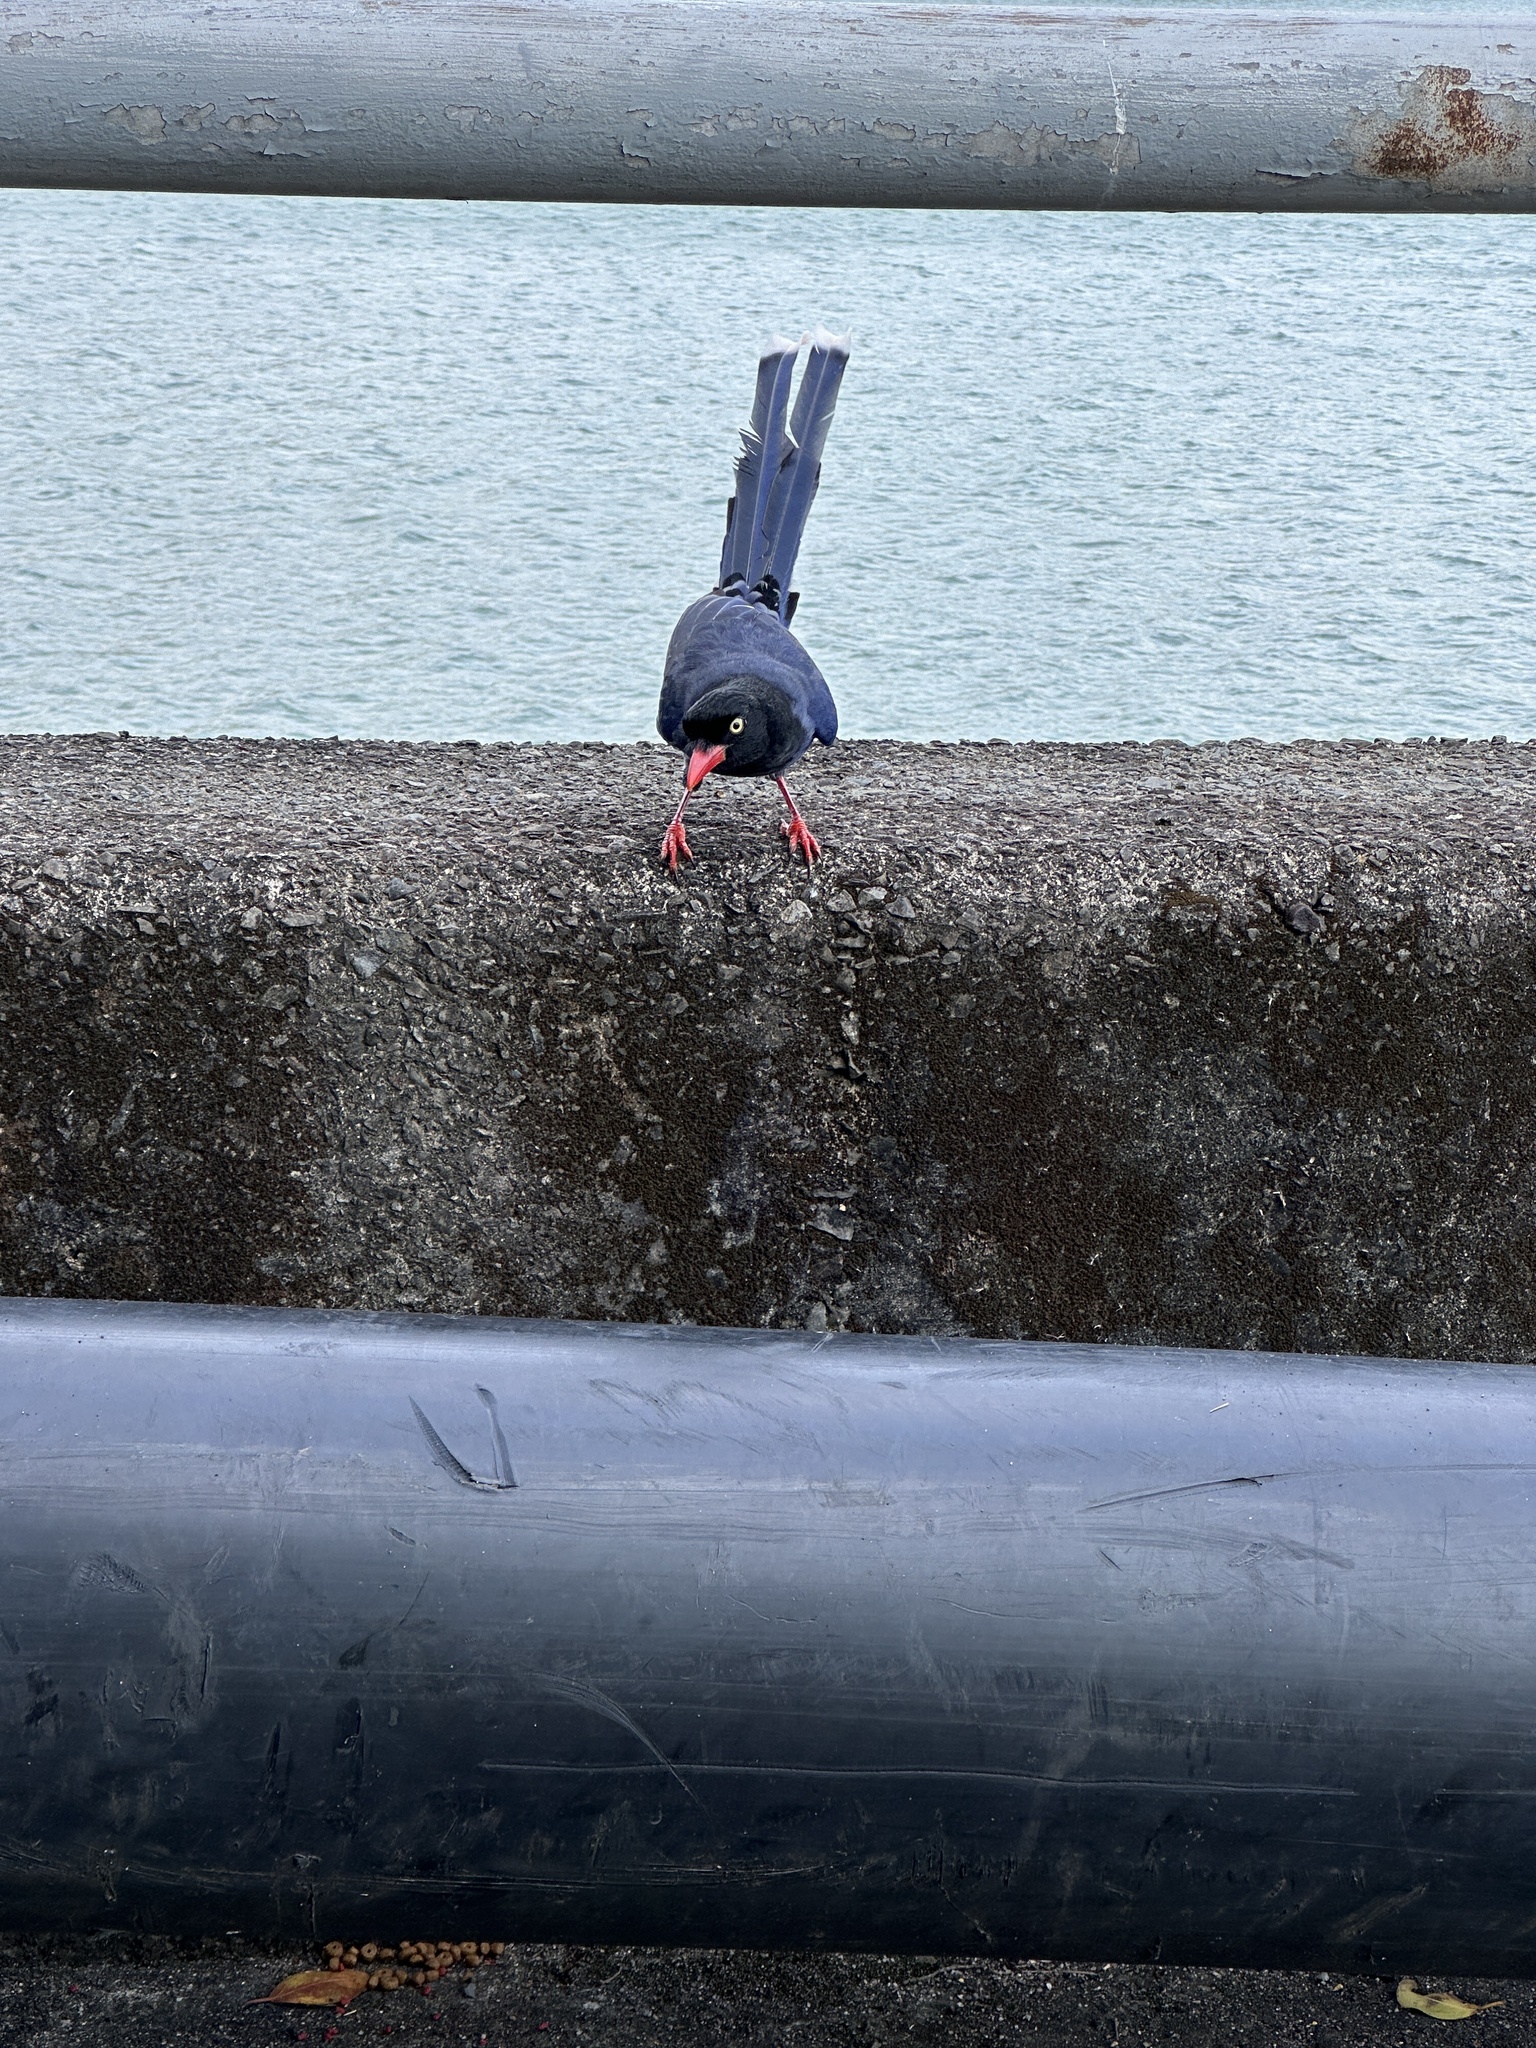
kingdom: Animalia
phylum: Chordata
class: Aves
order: Passeriformes
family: Corvidae
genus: Urocissa
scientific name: Urocissa caerulea
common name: Taiwan blue magpie
